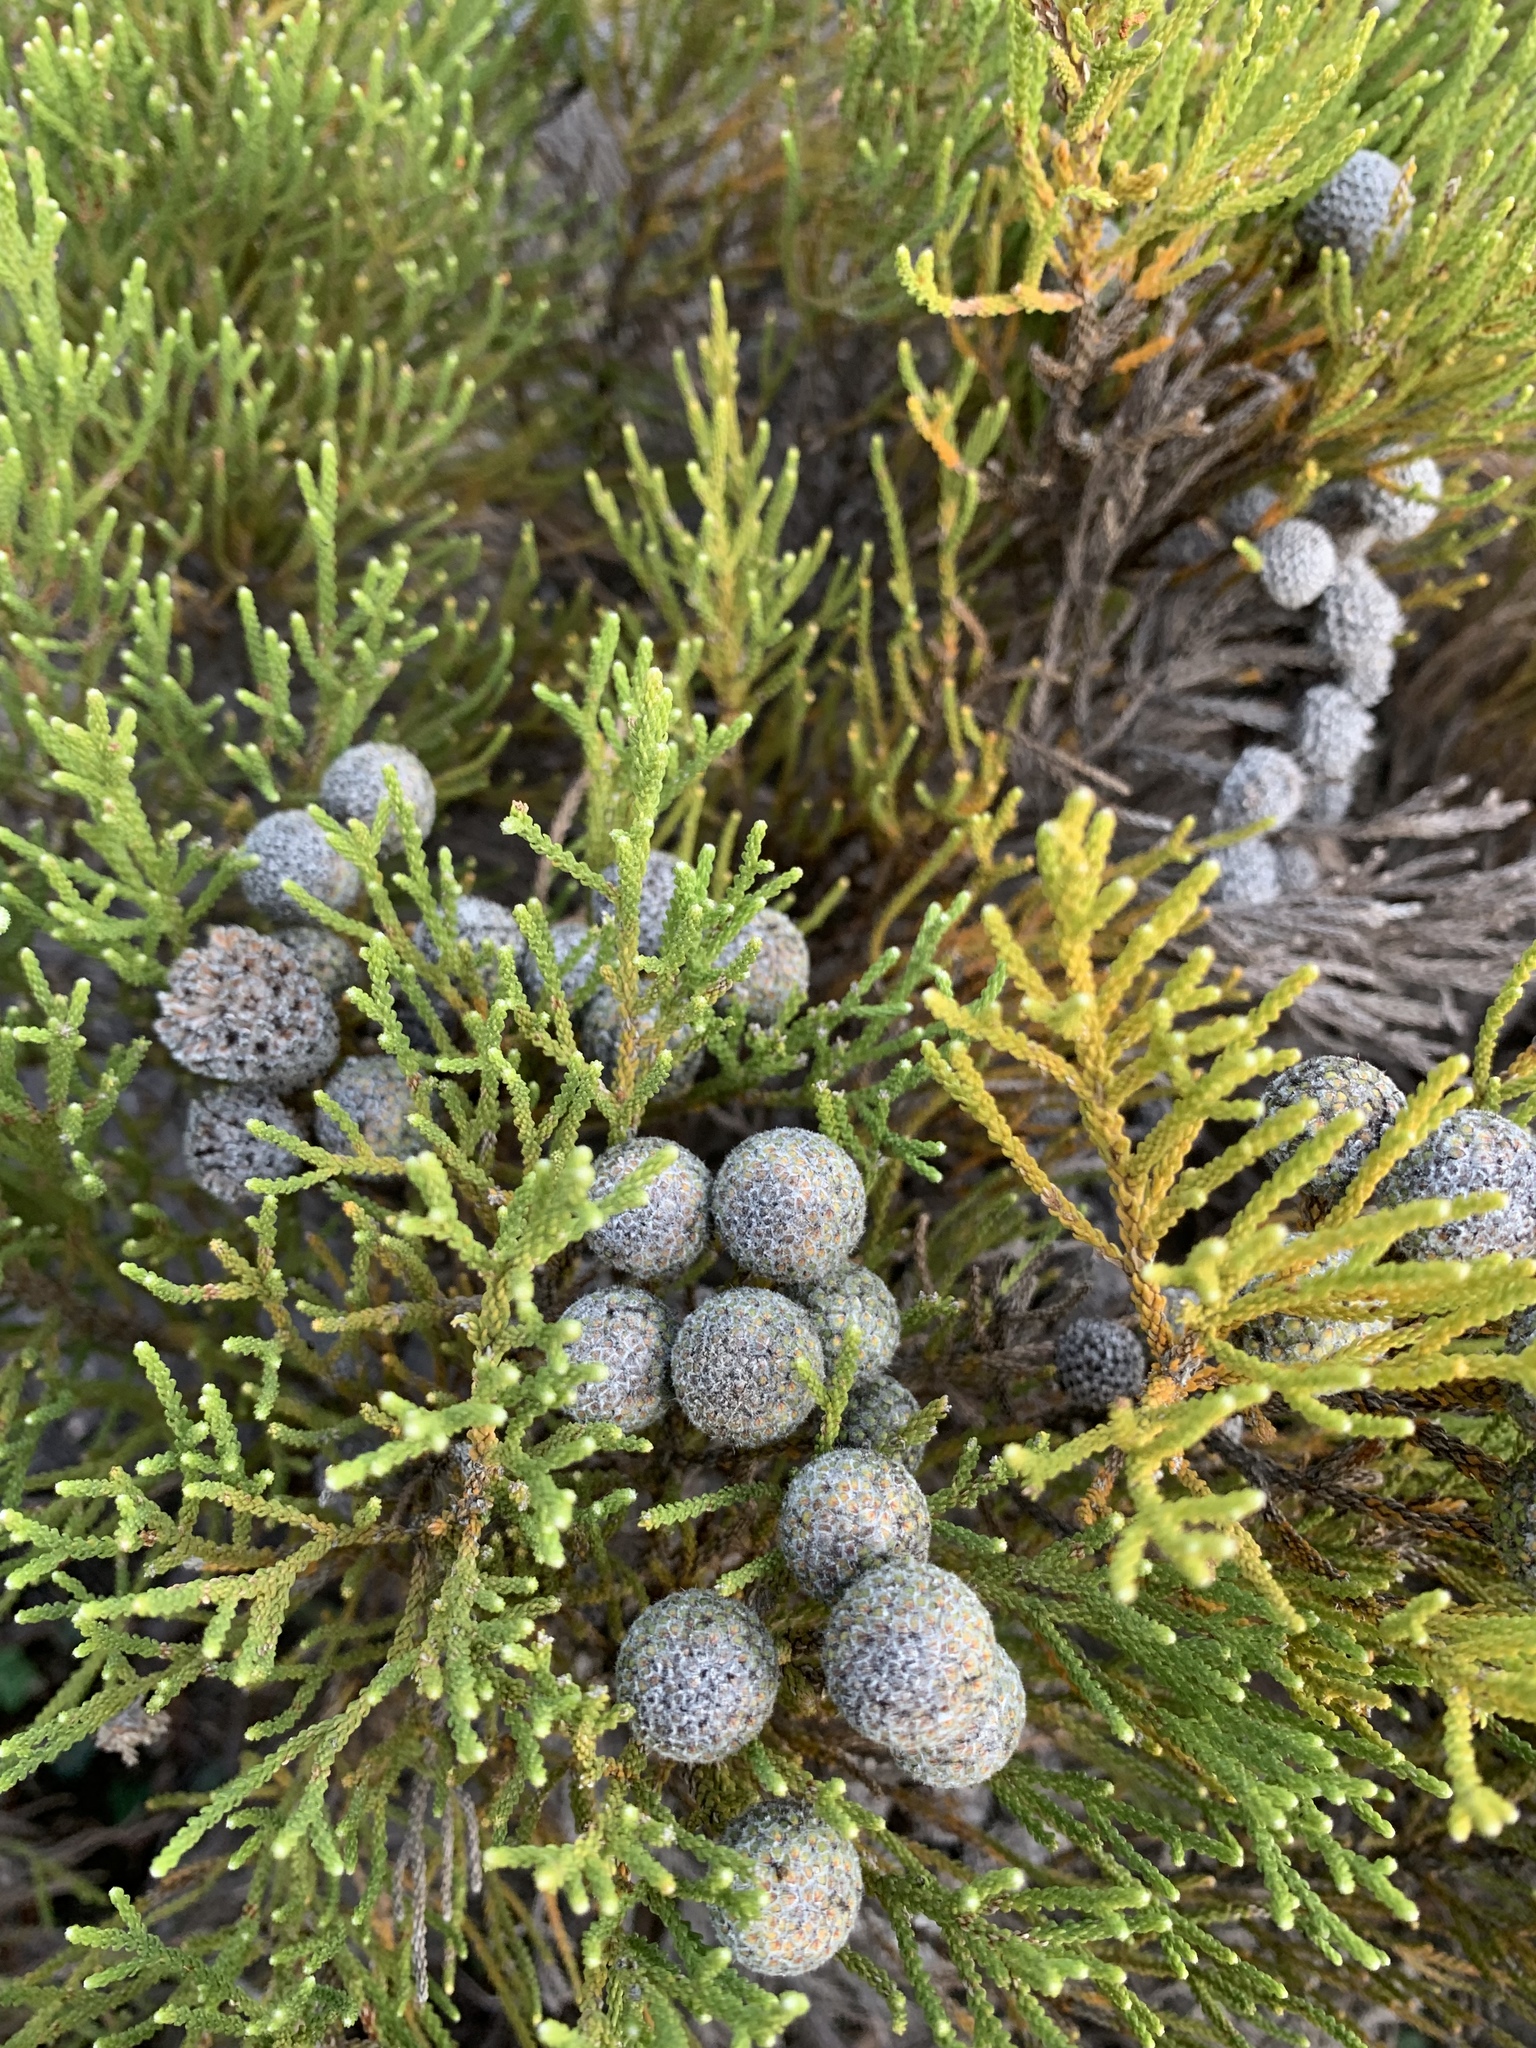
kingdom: Plantae
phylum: Tracheophyta
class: Magnoliopsida
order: Bruniales
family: Bruniaceae
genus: Brunia
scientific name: Brunia noduliflora
